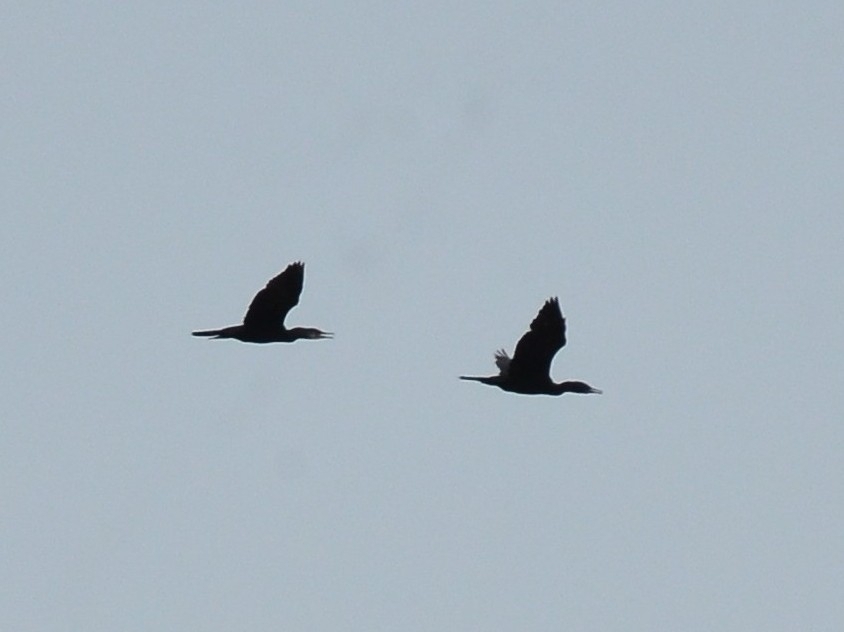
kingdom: Animalia
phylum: Chordata
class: Aves
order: Suliformes
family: Phalacrocoracidae
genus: Phalacrocorax
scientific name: Phalacrocorax fuscicollis
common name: Indian cormorant
